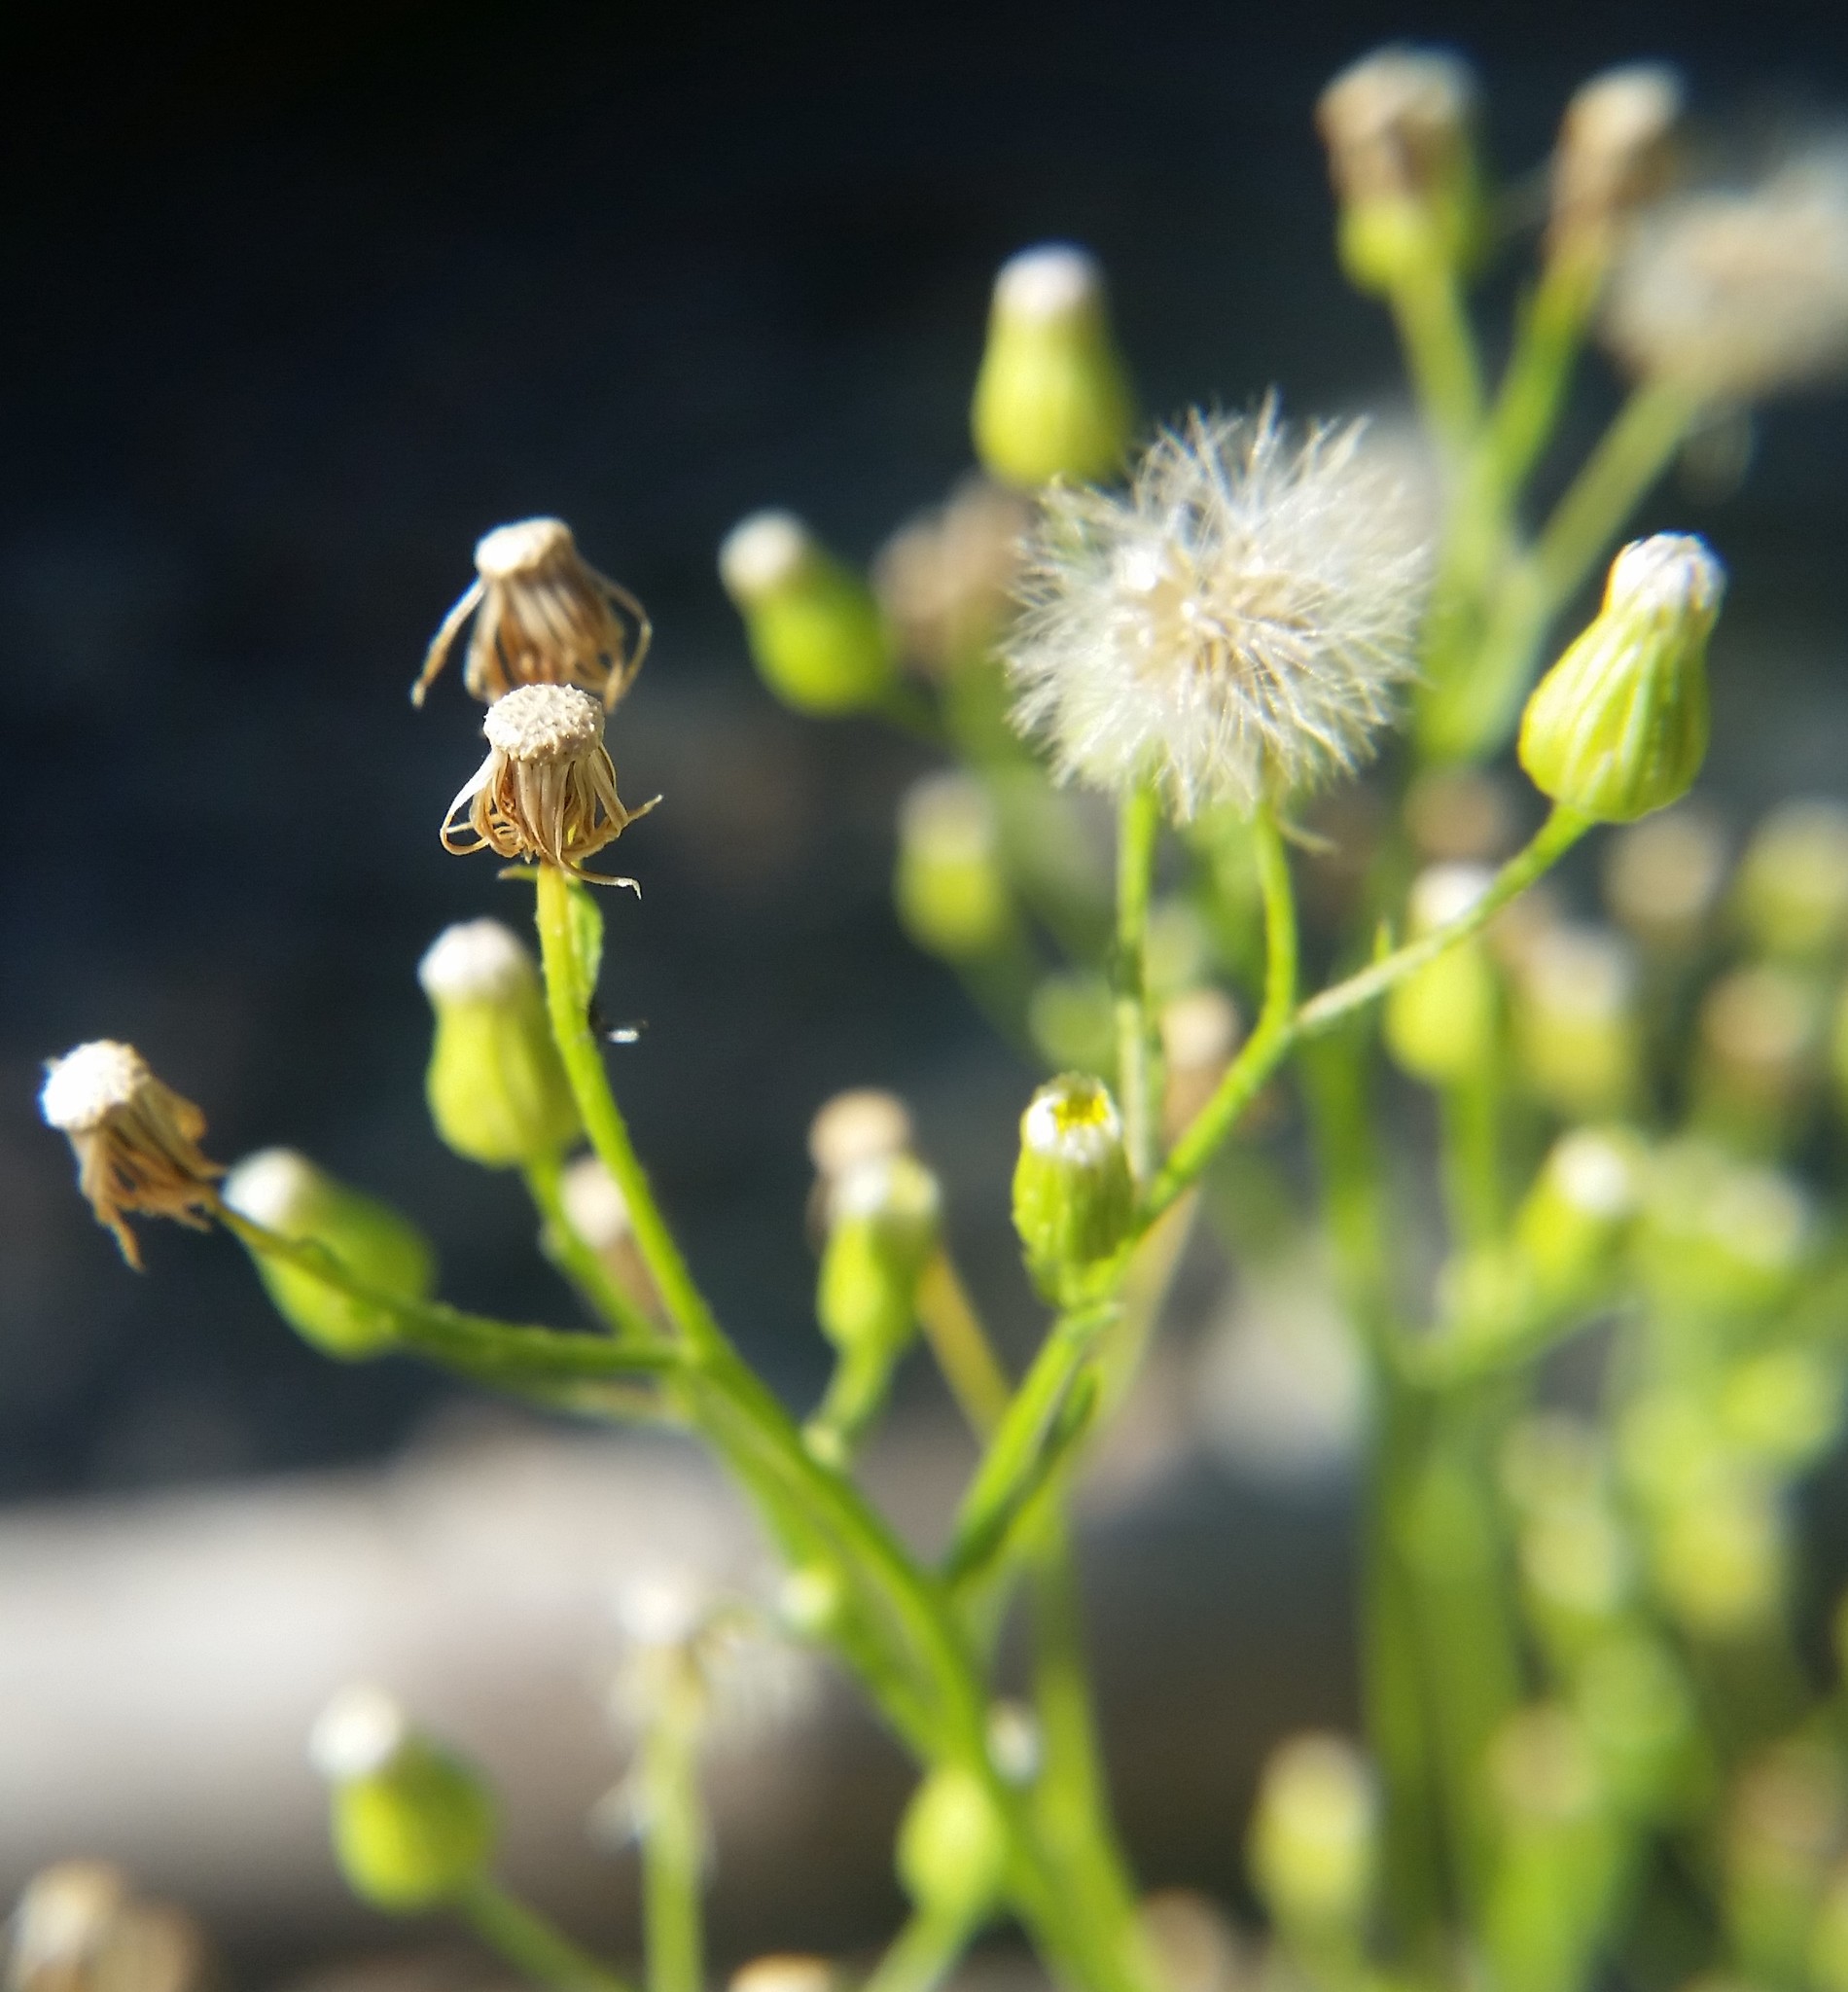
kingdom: Plantae
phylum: Tracheophyta
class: Magnoliopsida
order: Asterales
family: Asteraceae
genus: Erigeron
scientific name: Erigeron canadensis
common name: Canadian fleabane
